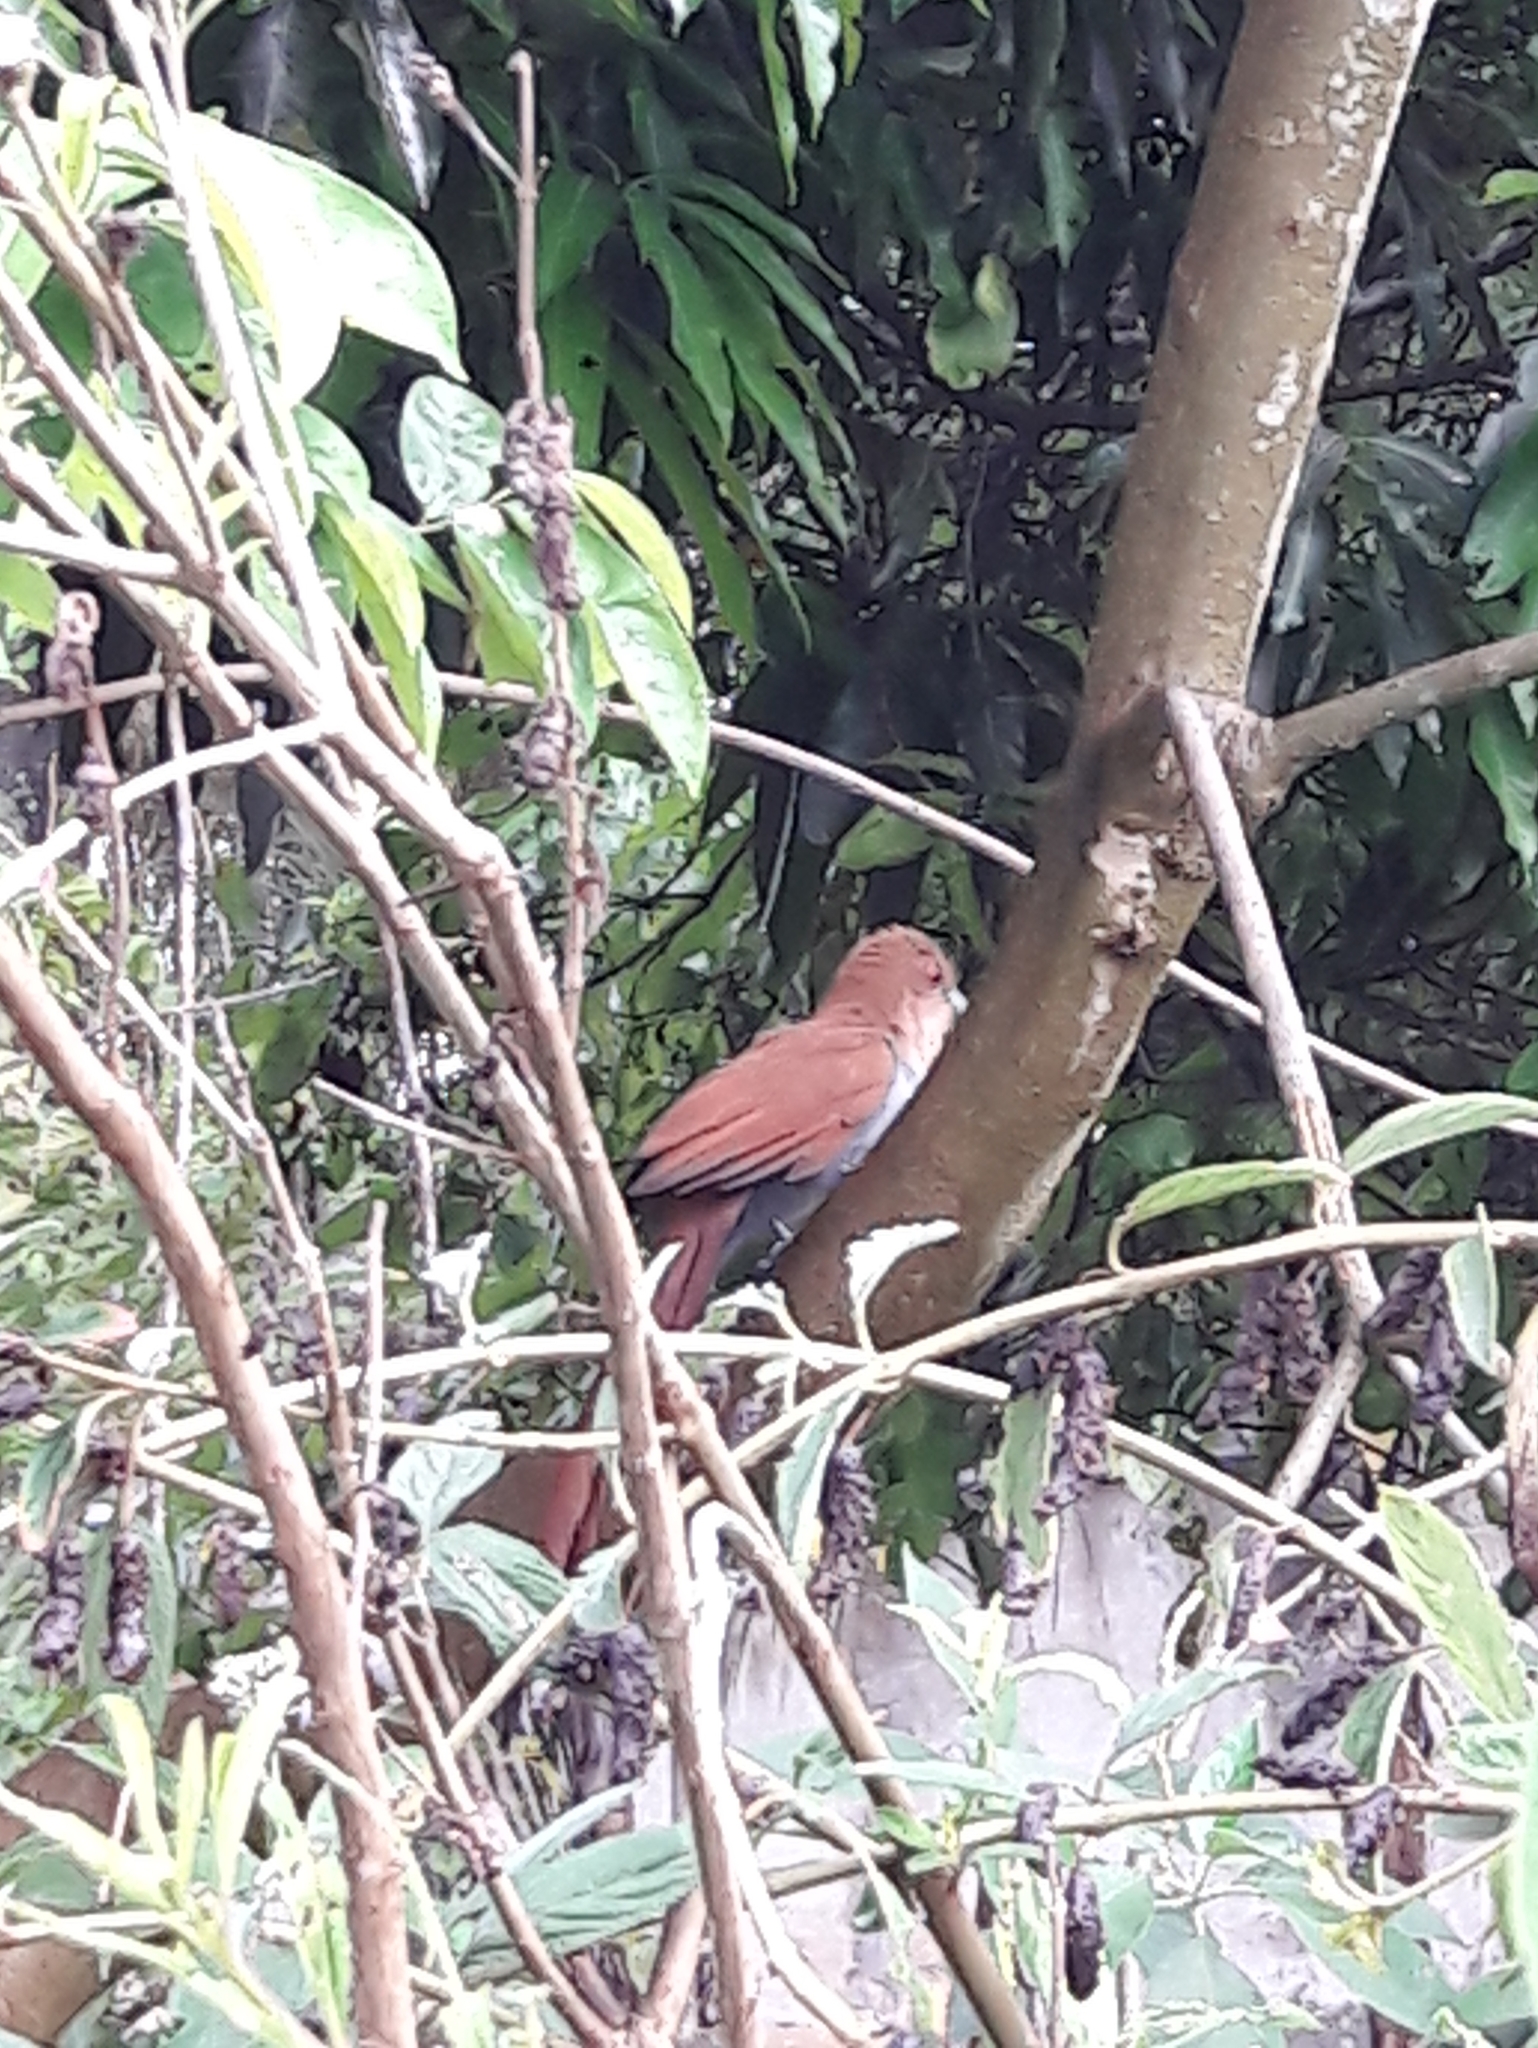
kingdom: Animalia
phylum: Chordata
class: Aves
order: Cuculiformes
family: Cuculidae
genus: Piaya
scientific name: Piaya cayana
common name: Squirrel cuckoo
